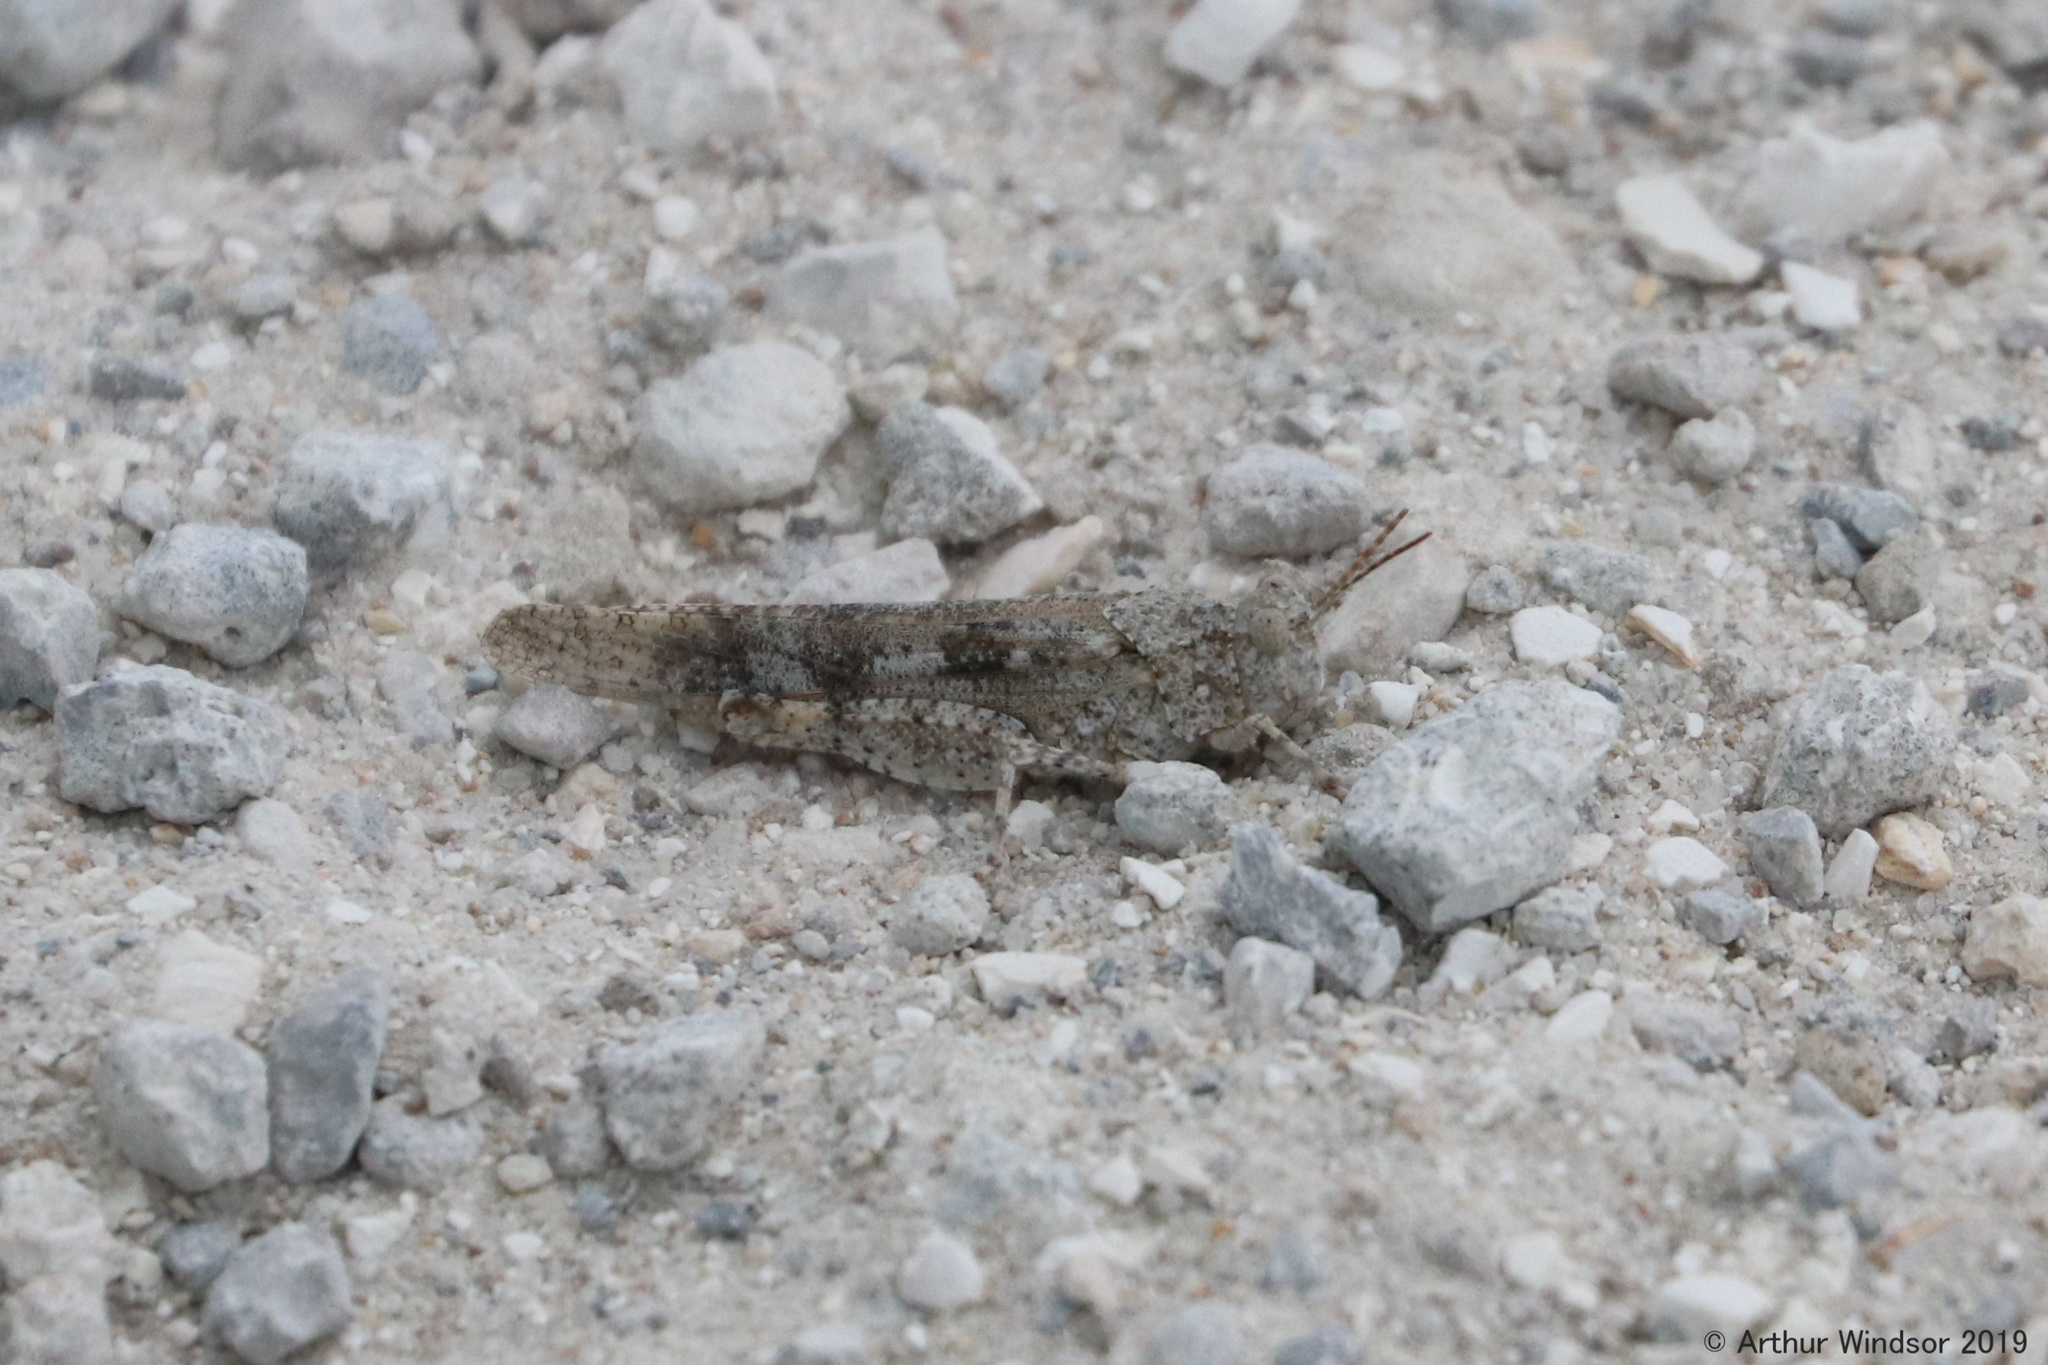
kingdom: Animalia
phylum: Arthropoda
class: Insecta
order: Orthoptera
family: Acrididae
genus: Trimerotropis
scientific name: Trimerotropis maritima
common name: Seaside locust
